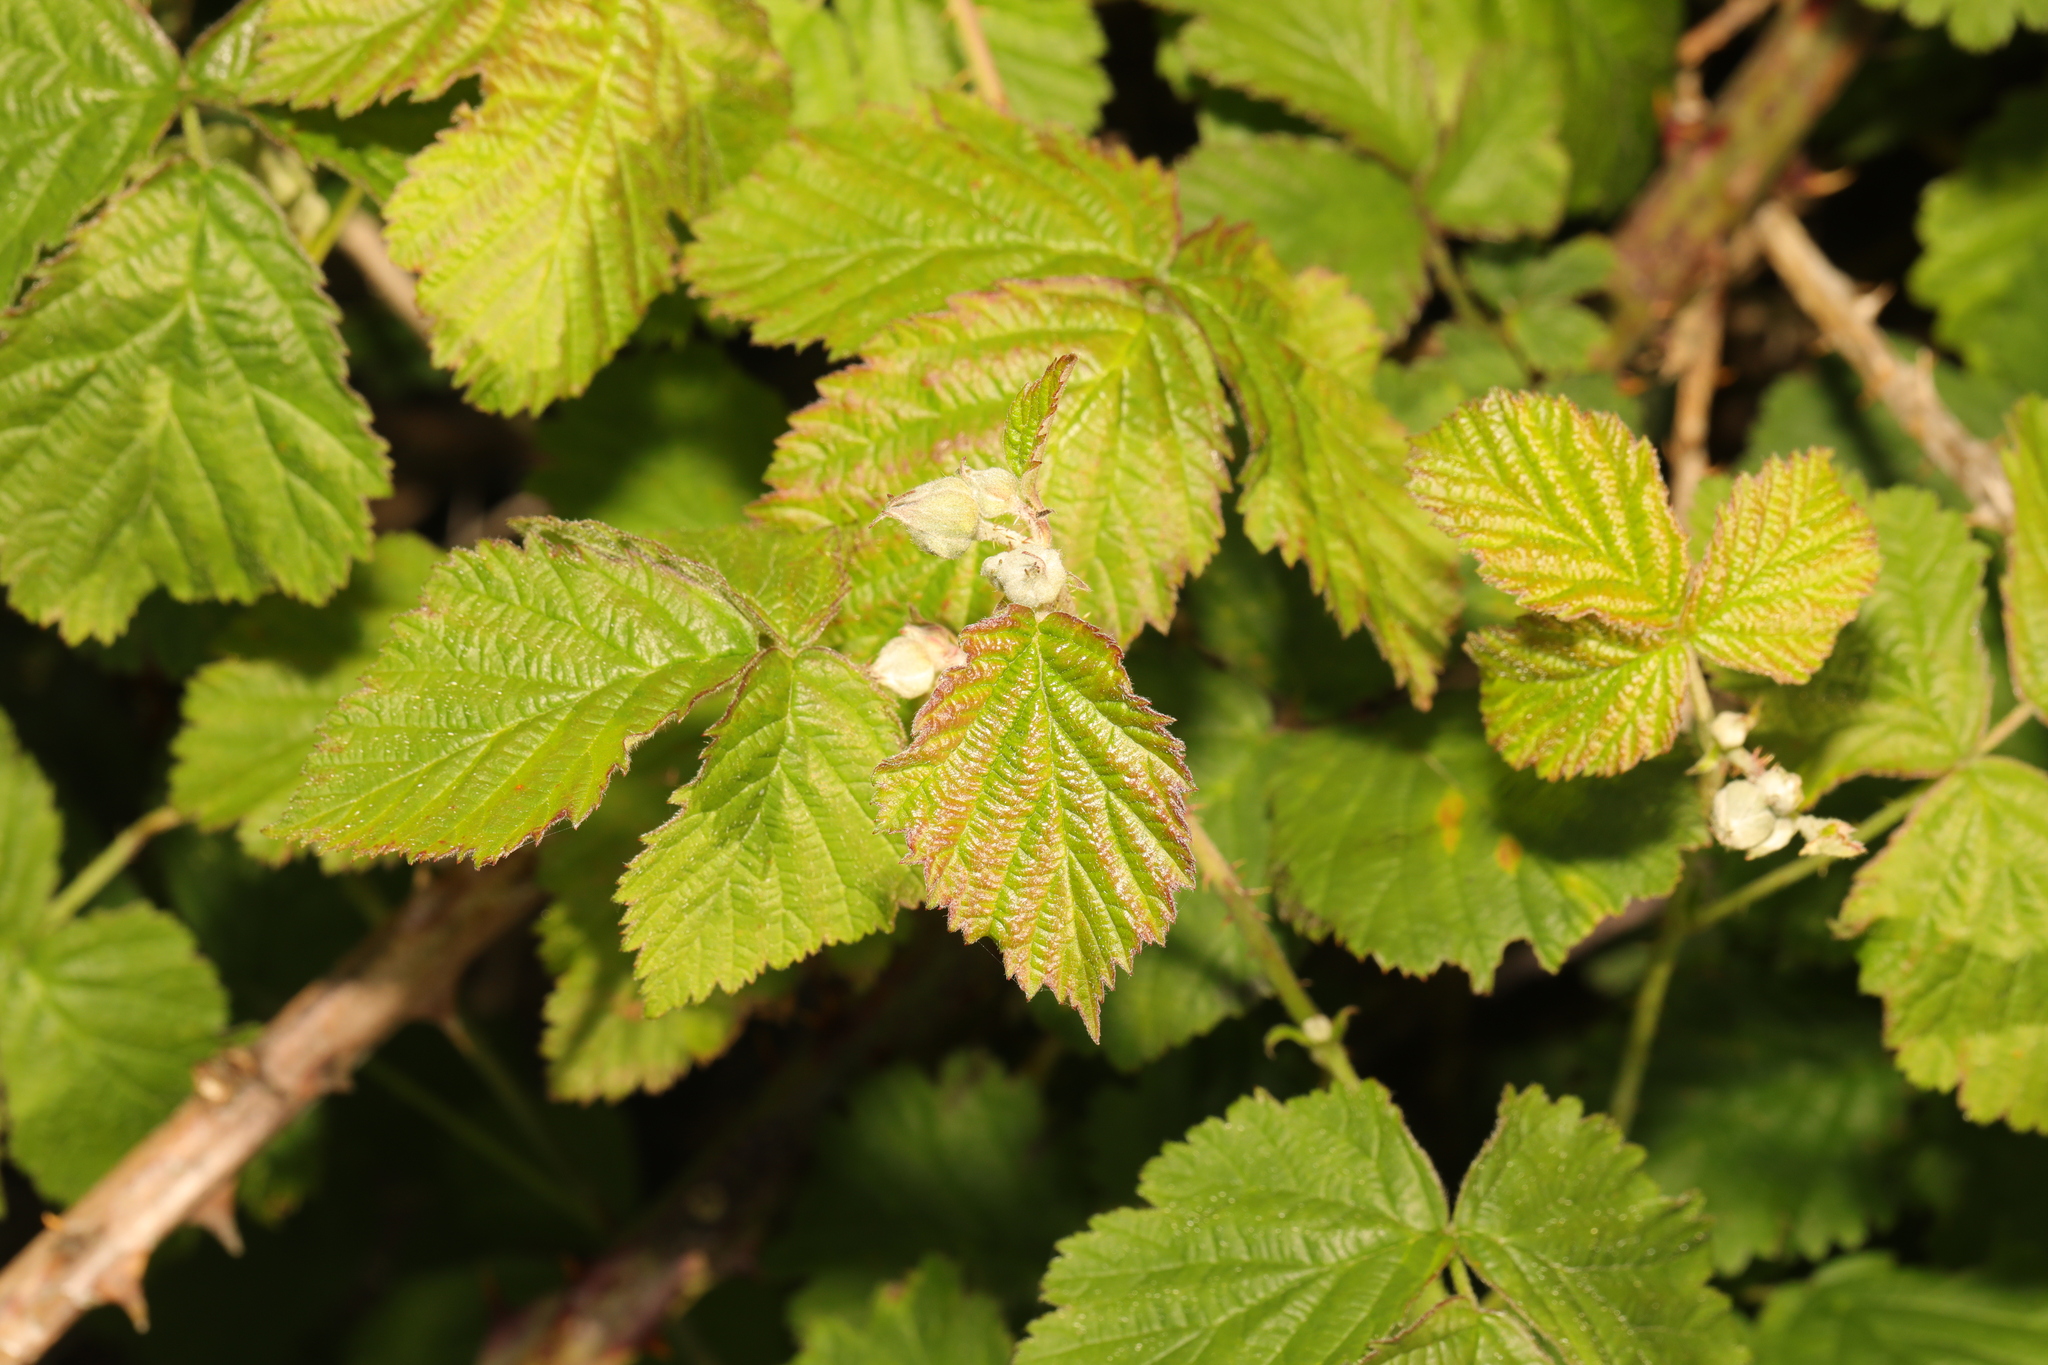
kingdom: Plantae
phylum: Tracheophyta
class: Magnoliopsida
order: Rosales
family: Rosaceae
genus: Rubus
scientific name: Rubus caesius
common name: Dewberry
